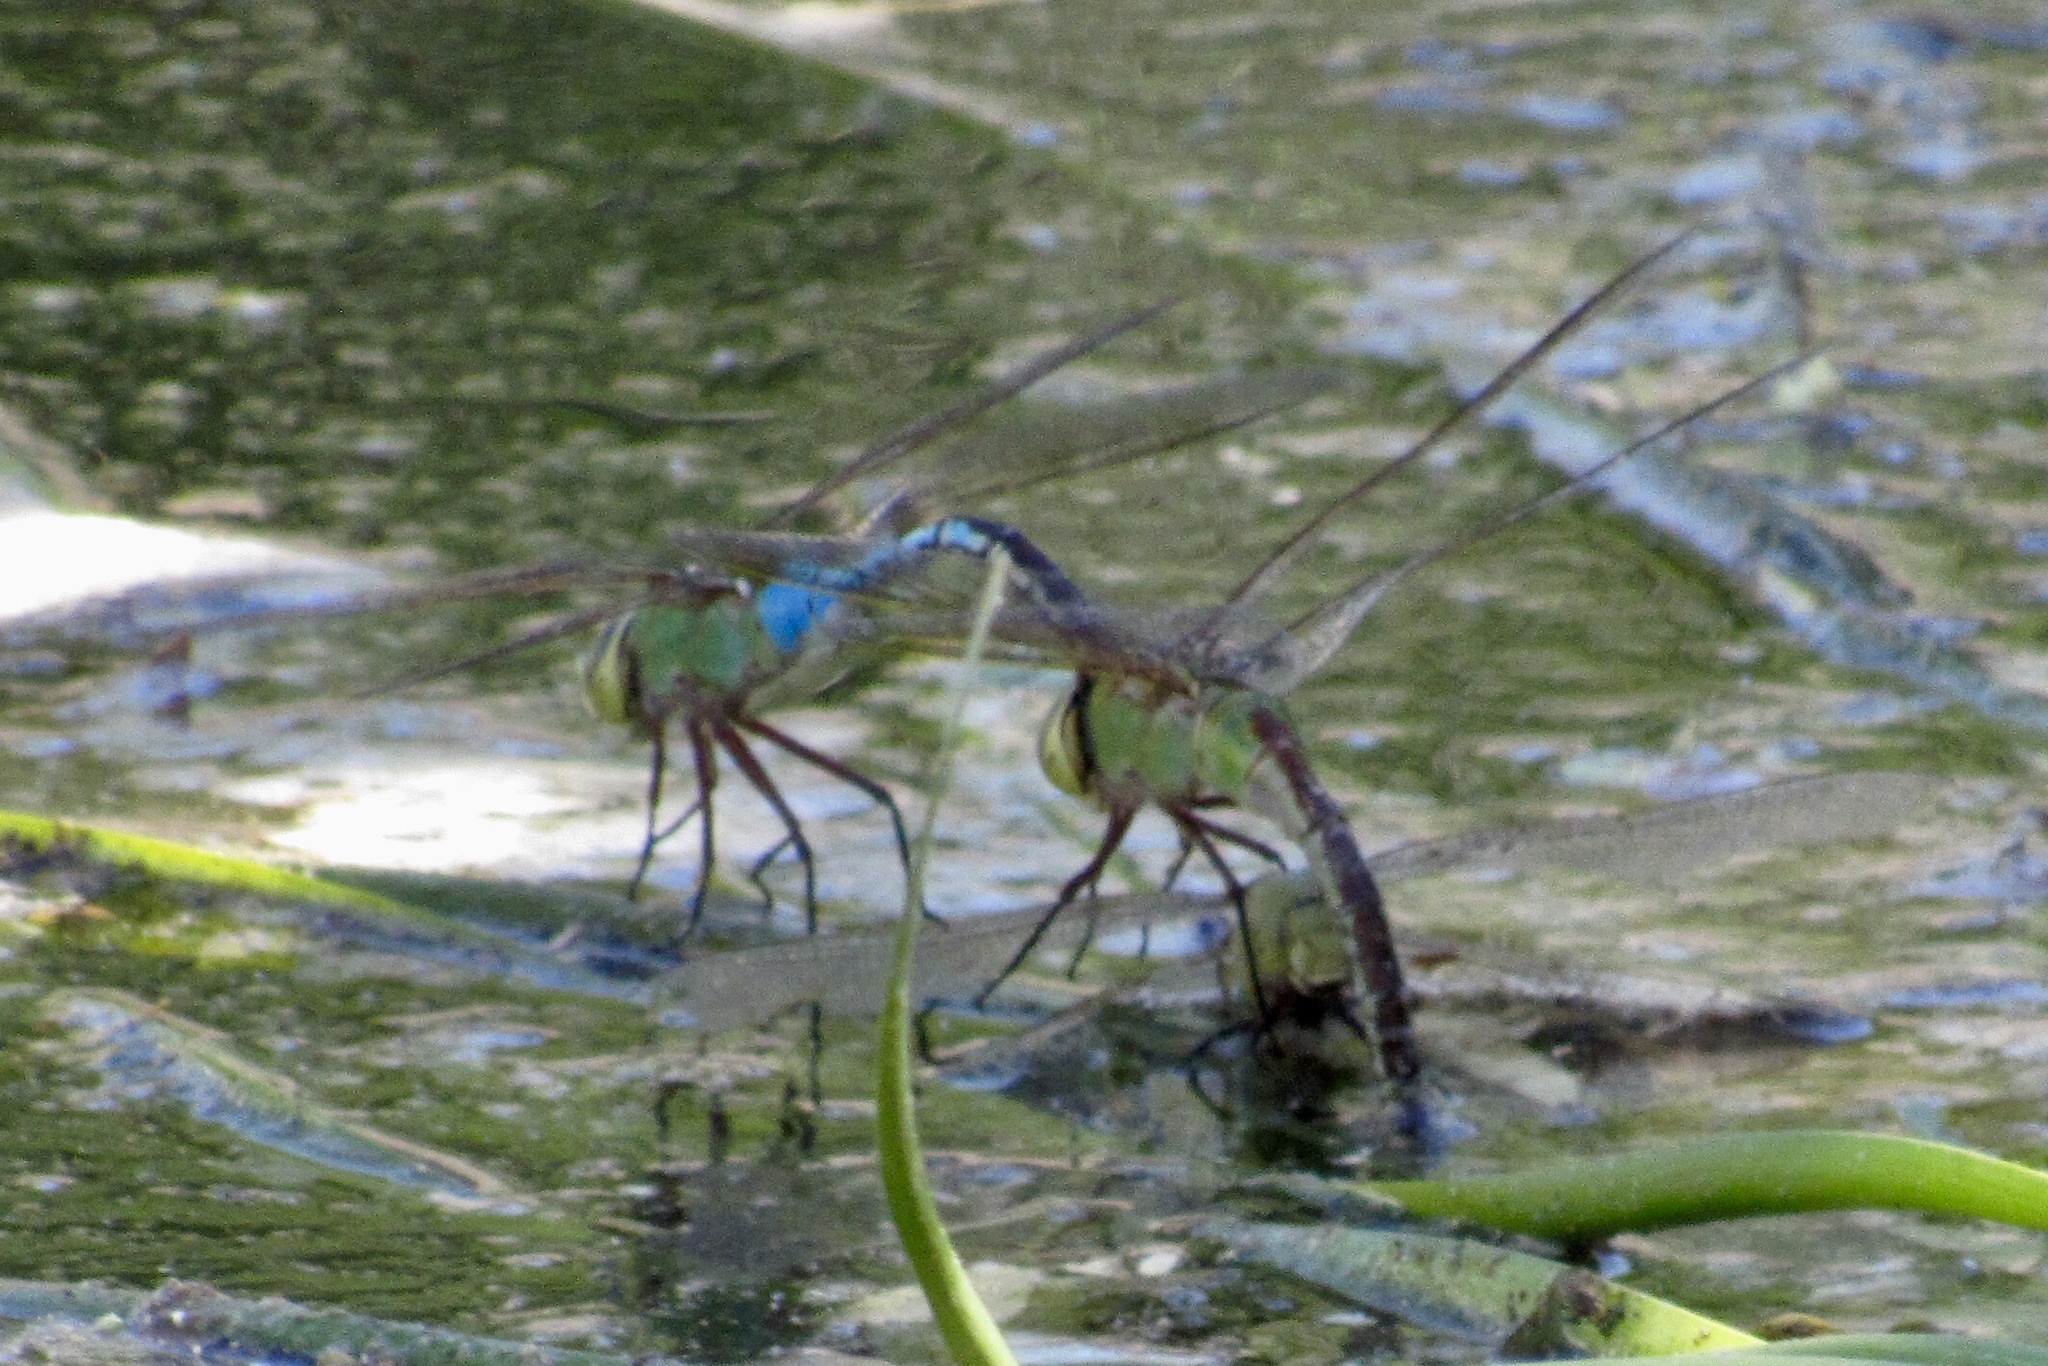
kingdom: Animalia
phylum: Arthropoda
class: Insecta
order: Odonata
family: Aeshnidae
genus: Anax
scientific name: Anax junius
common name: Common green darner
